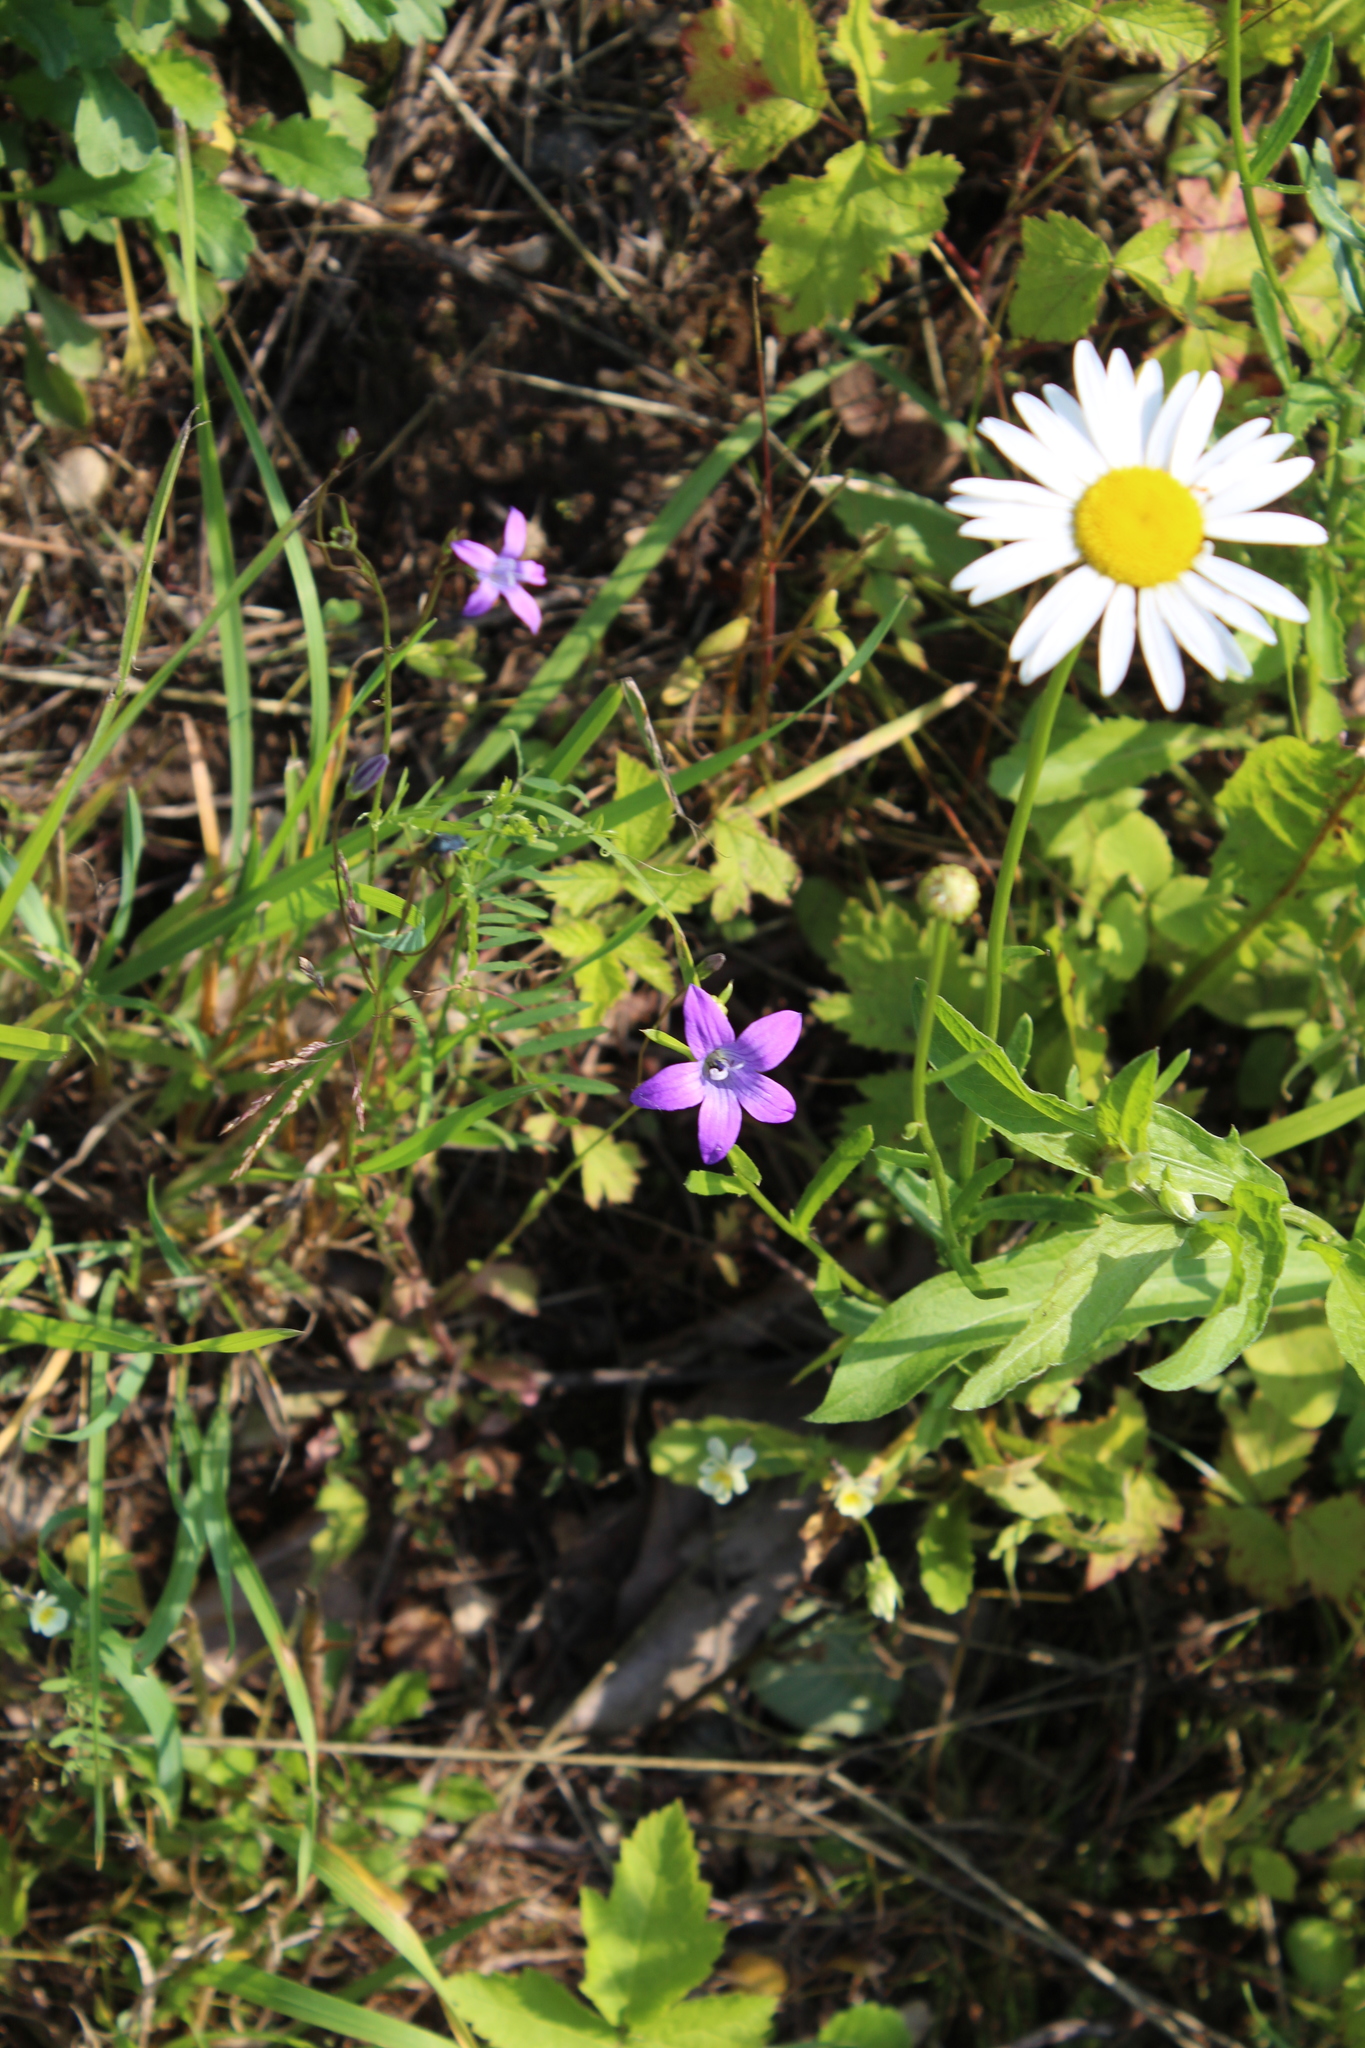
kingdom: Plantae
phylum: Tracheophyta
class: Magnoliopsida
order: Asterales
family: Campanulaceae
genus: Campanula
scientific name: Campanula patula
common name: Spreading bellflower
